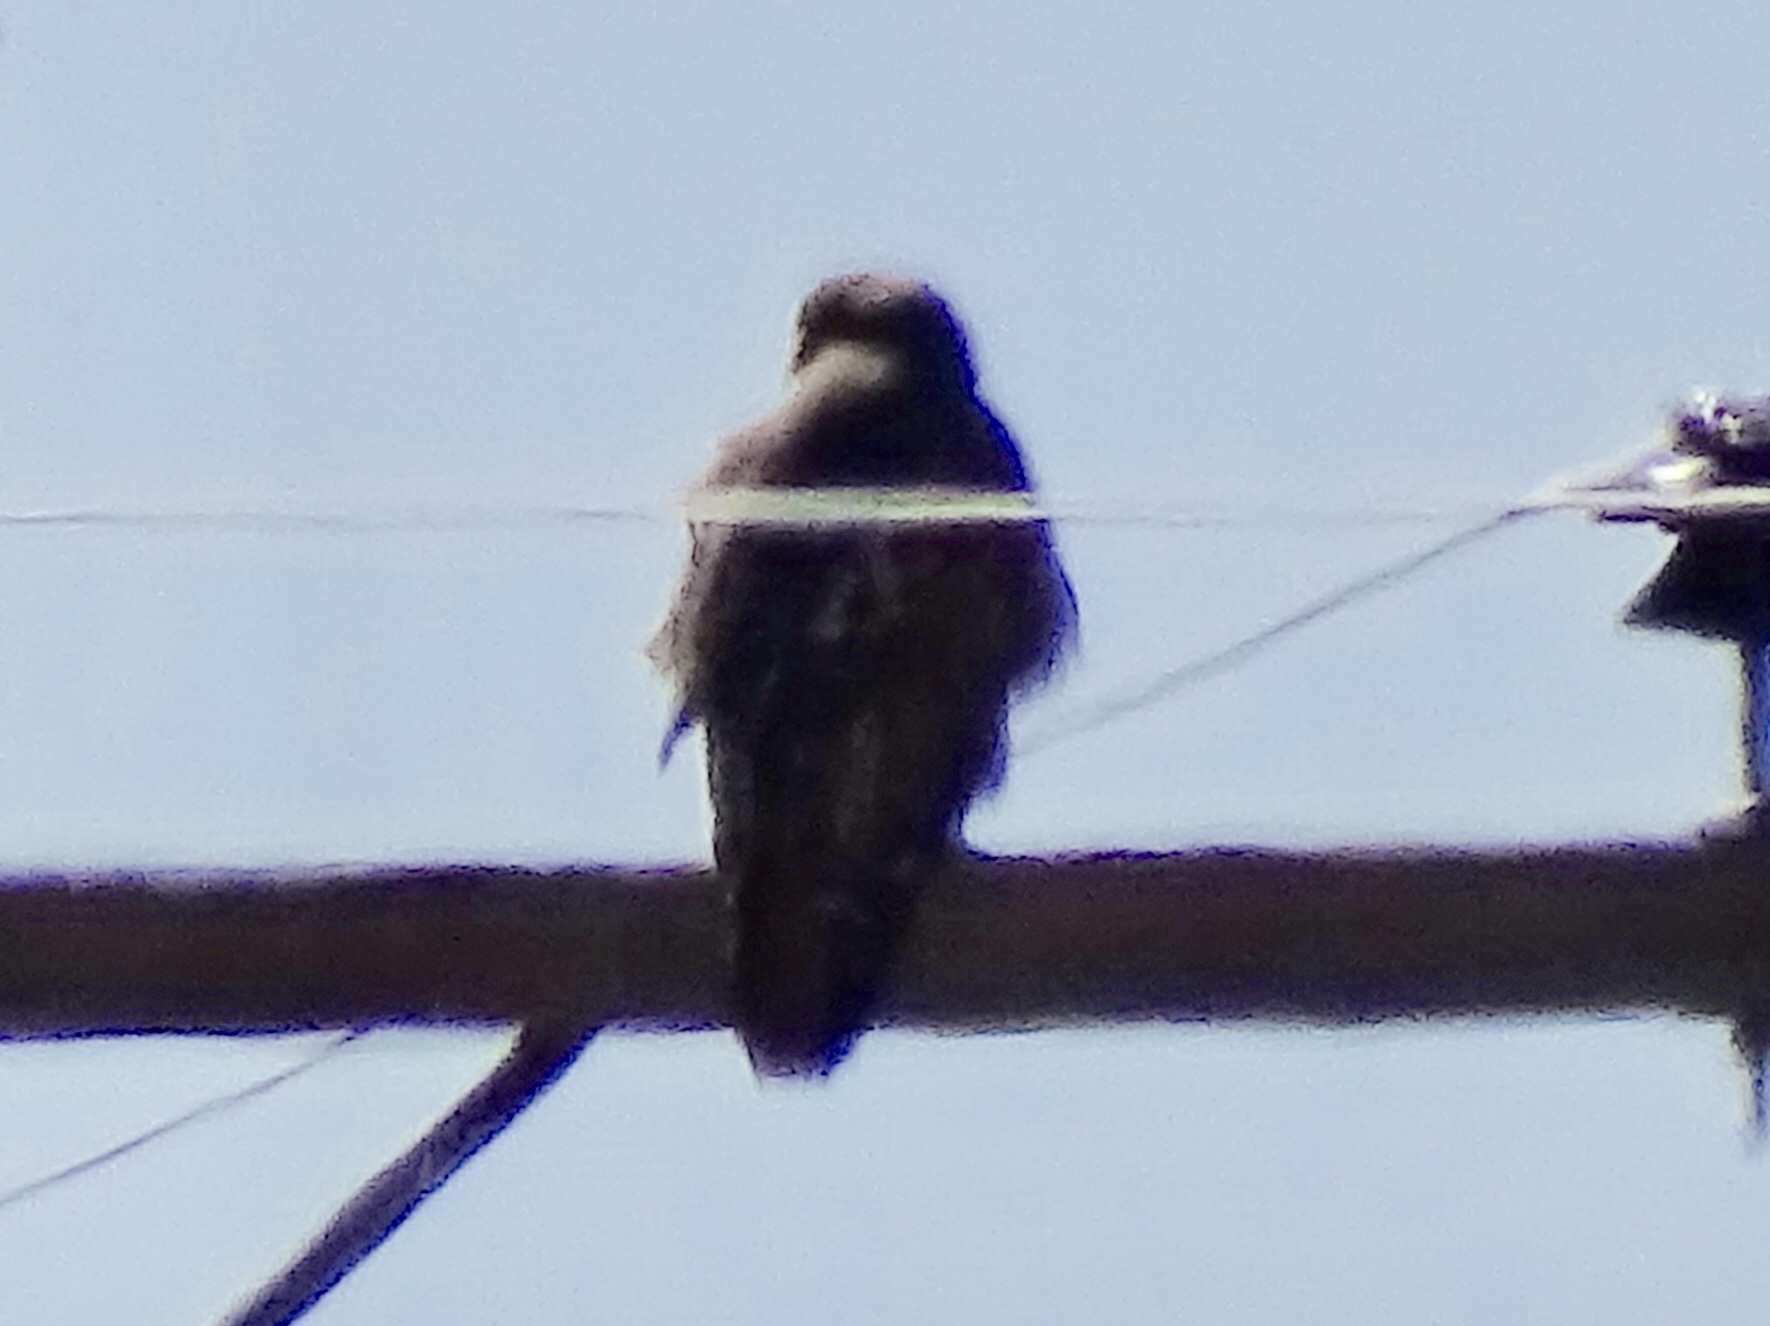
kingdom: Animalia
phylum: Chordata
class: Aves
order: Accipitriformes
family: Accipitridae
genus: Buteo
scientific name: Buteo jamaicensis
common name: Red-tailed hawk
